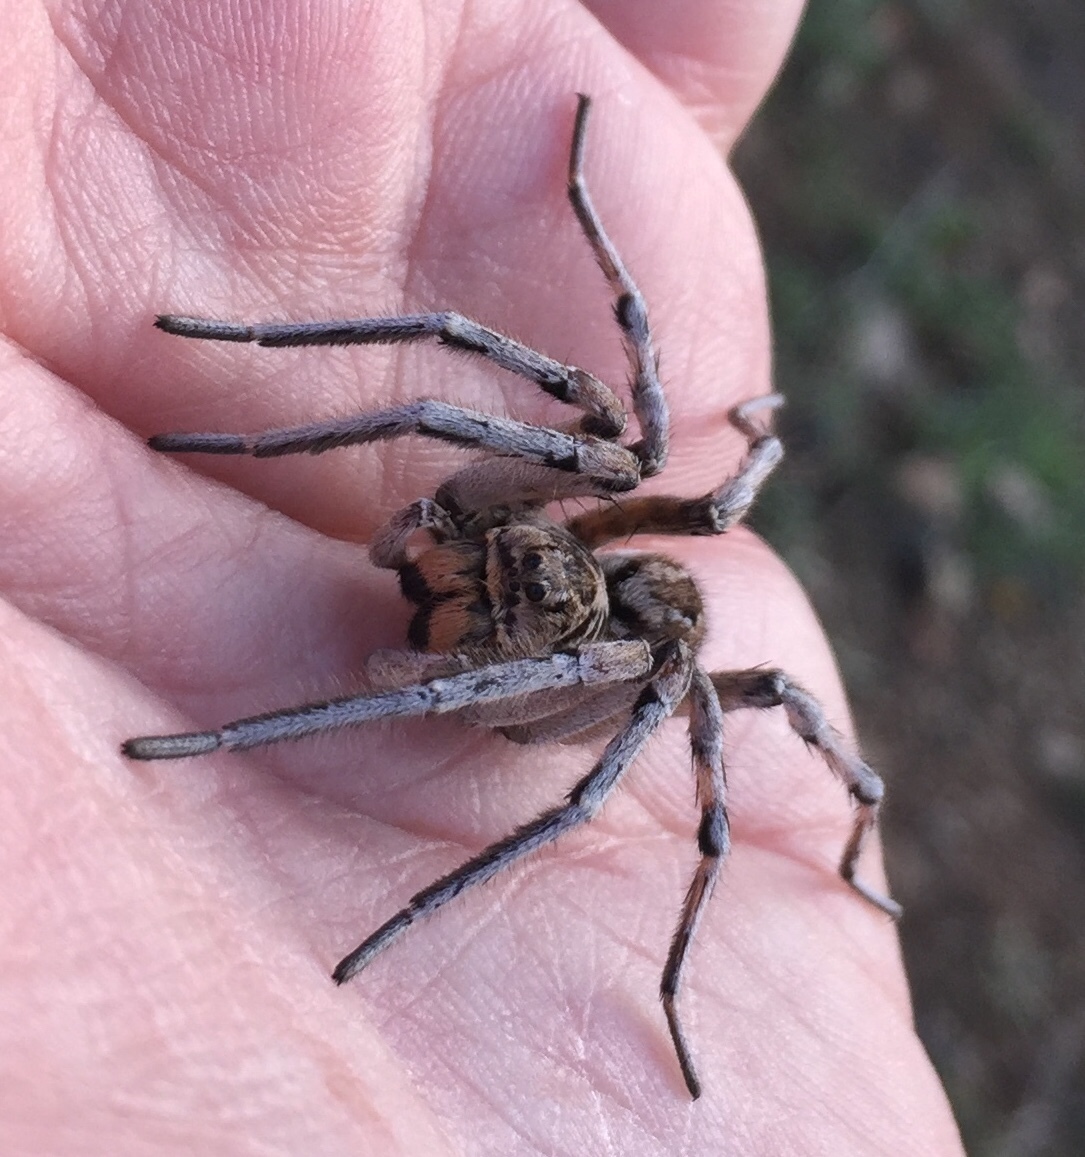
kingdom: Animalia
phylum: Arthropoda
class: Arachnida
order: Araneae
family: Lycosidae
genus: Geolycosa
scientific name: Geolycosa vultuosa
